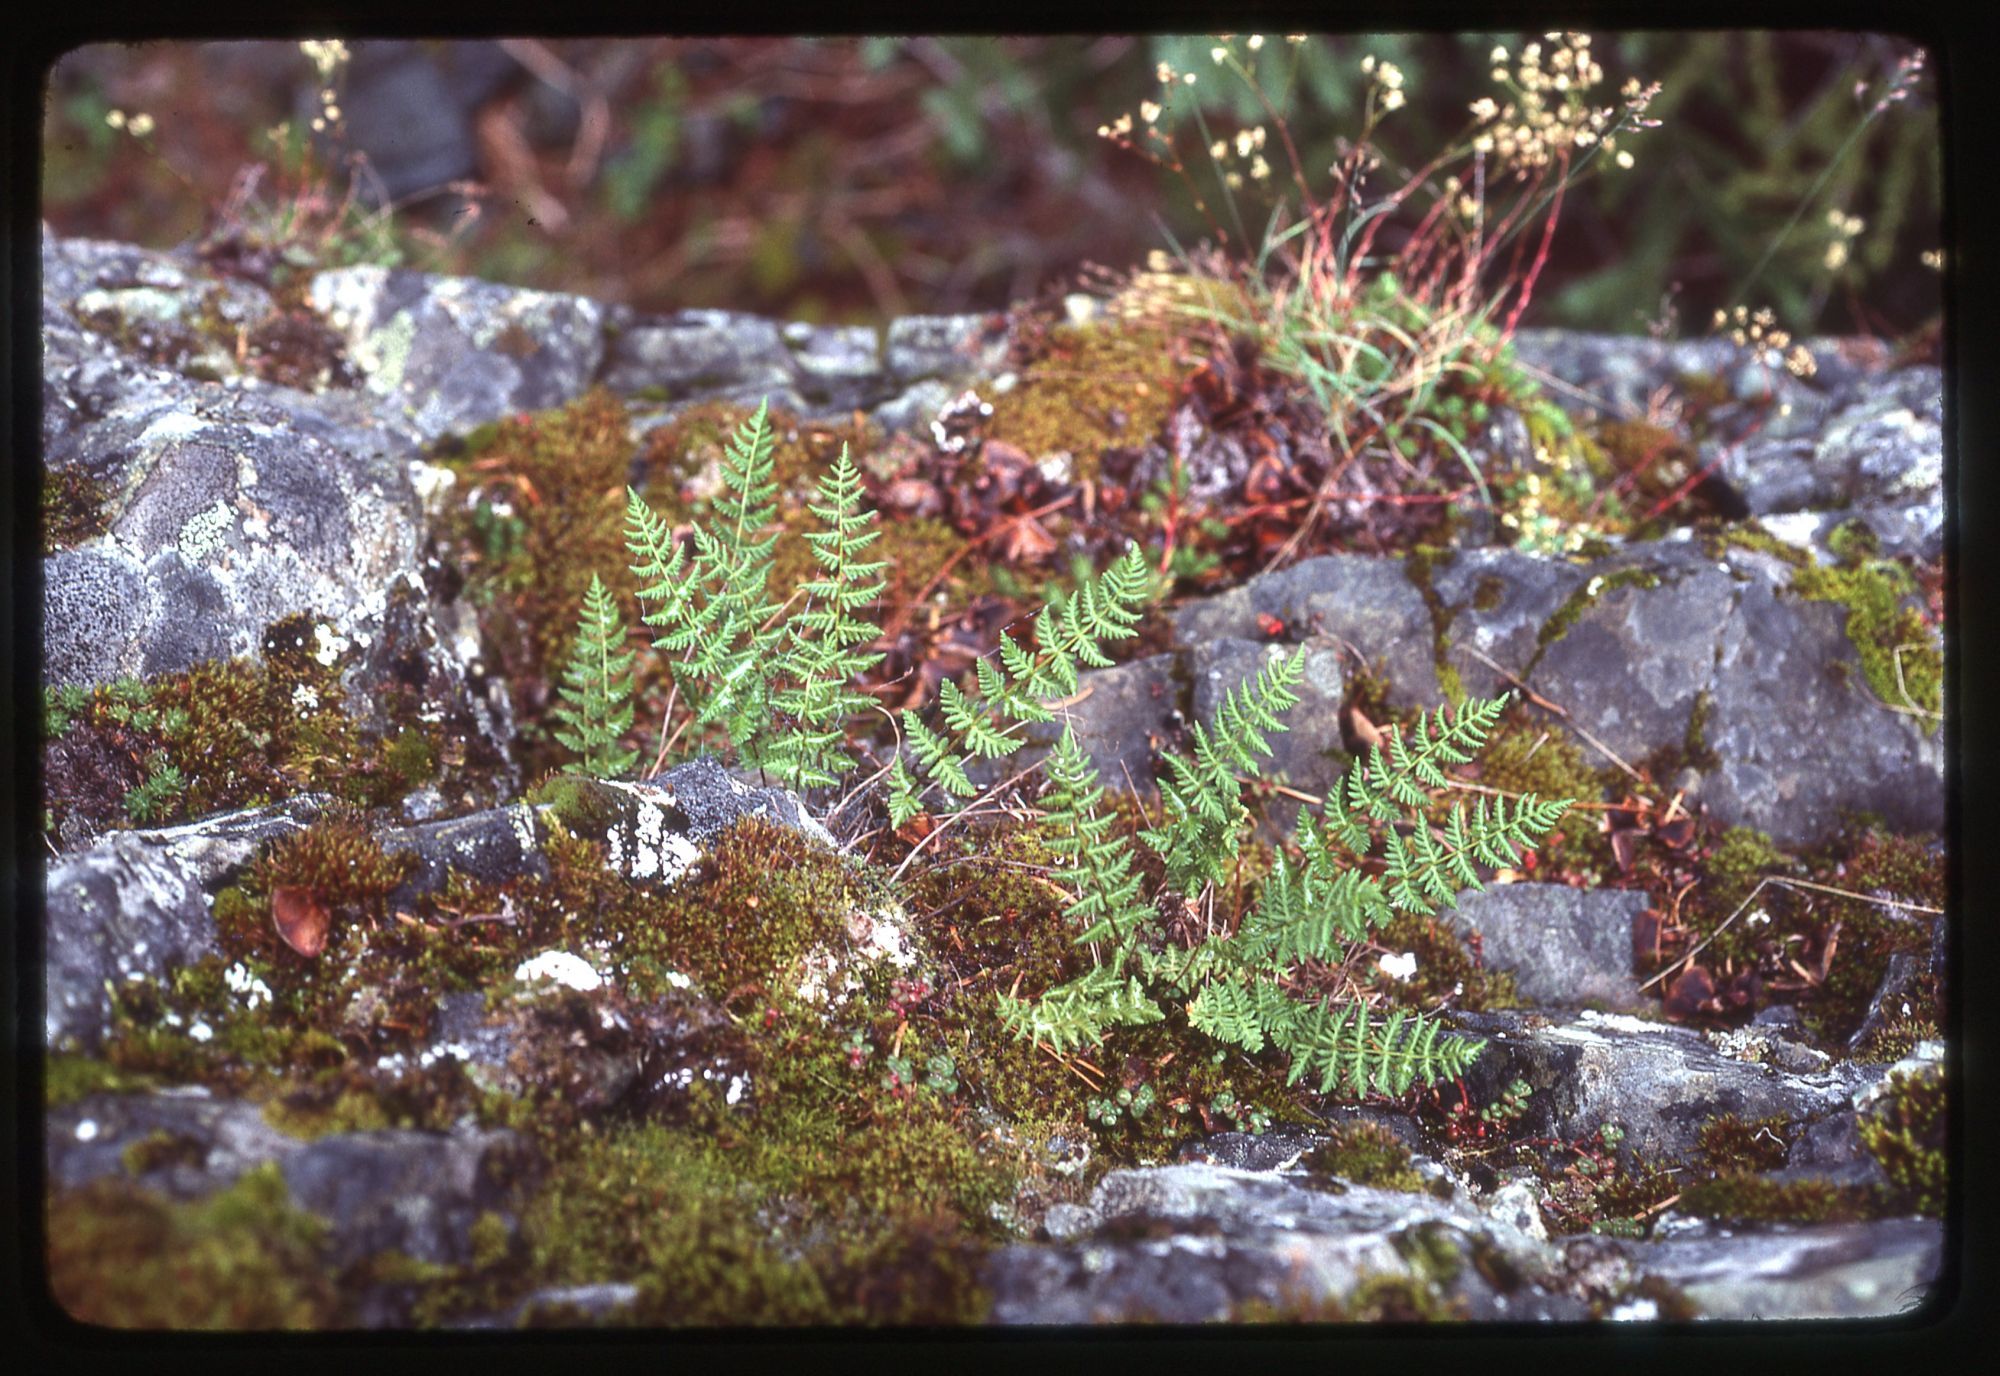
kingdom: Plantae
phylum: Tracheophyta
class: Polypodiopsida
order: Polypodiales
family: Woodsiaceae
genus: Physematium
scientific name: Physematium scopulinum
